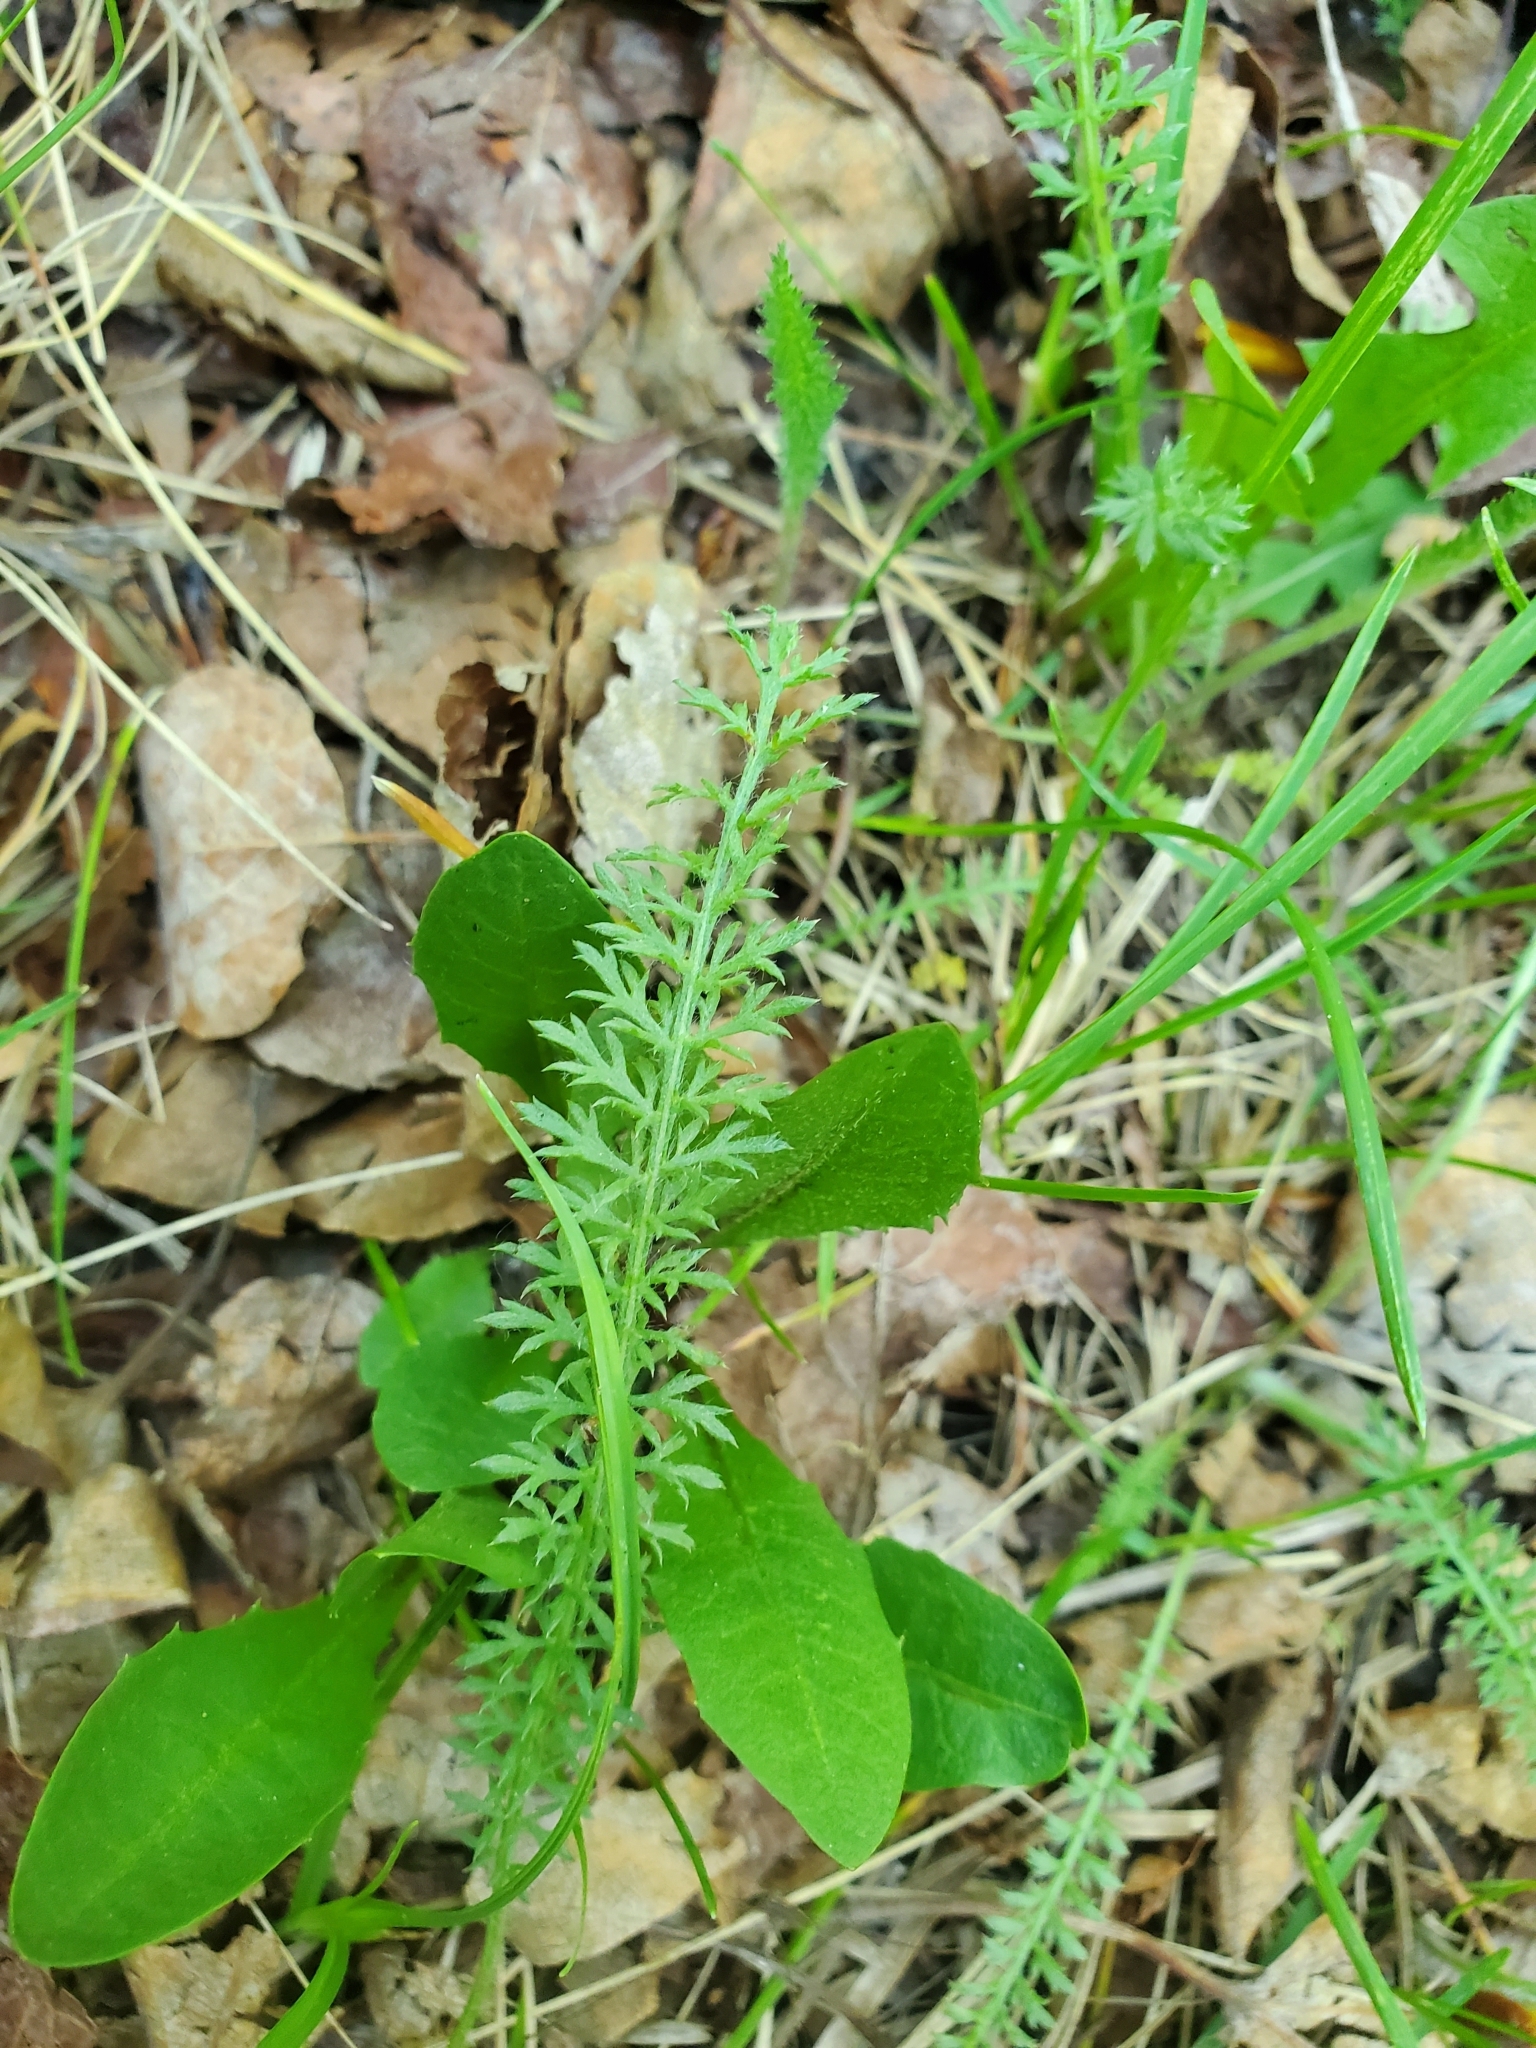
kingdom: Plantae
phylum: Tracheophyta
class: Magnoliopsida
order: Asterales
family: Asteraceae
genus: Achillea
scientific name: Achillea millefolium
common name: Yarrow
